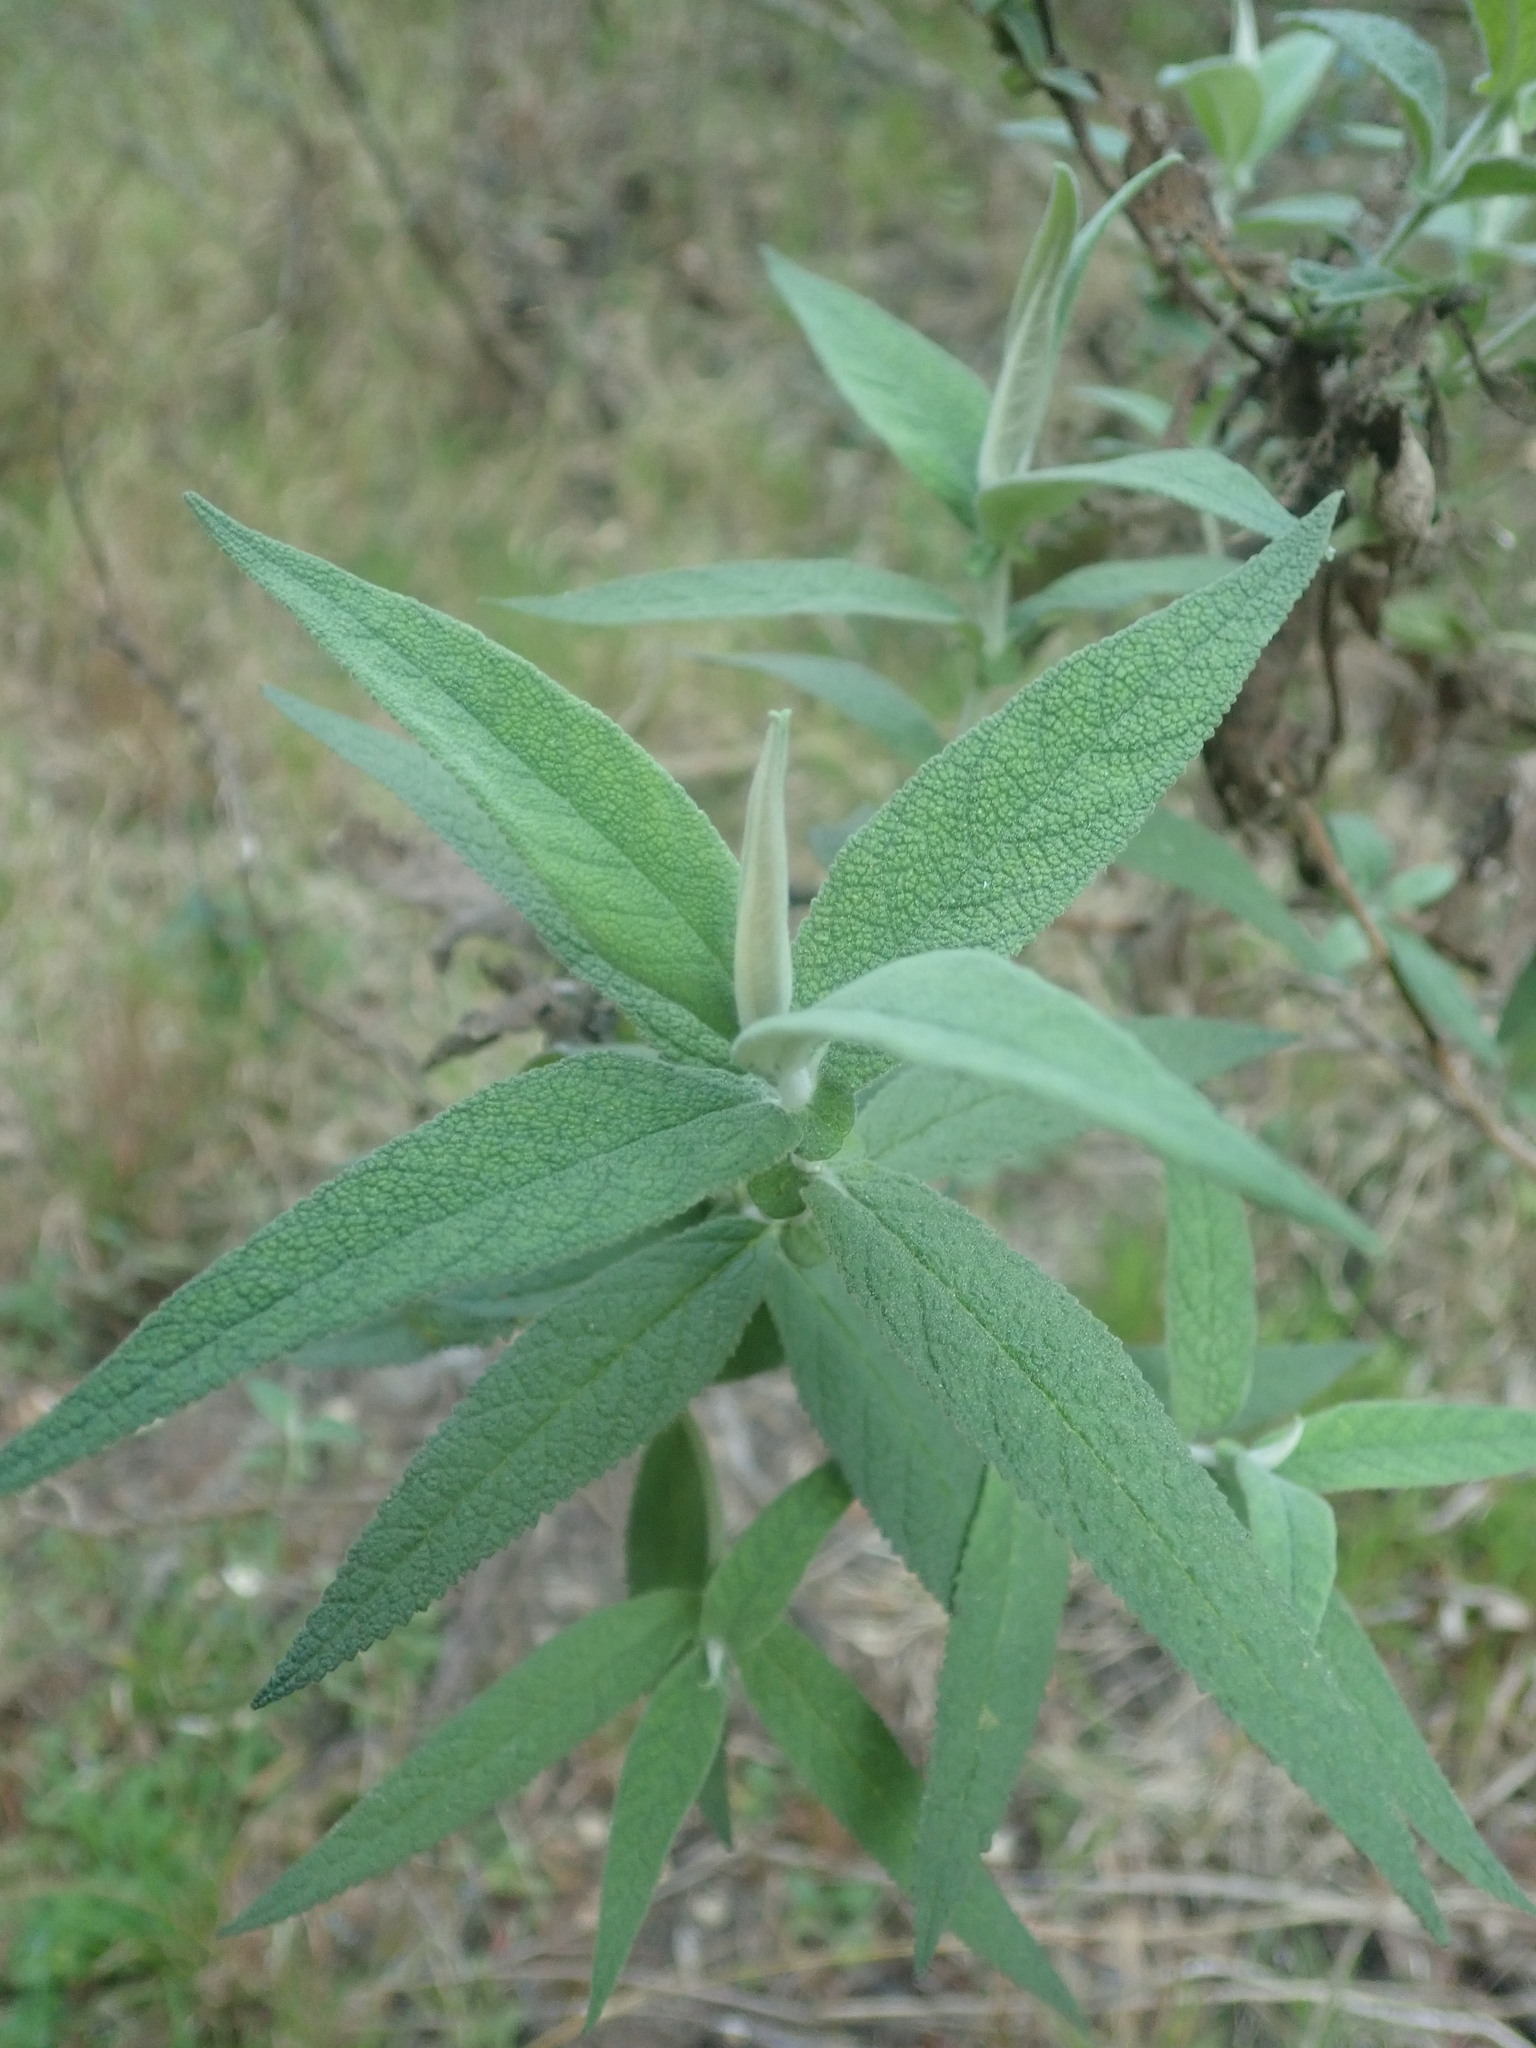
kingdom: Plantae
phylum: Tracheophyta
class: Magnoliopsida
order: Lamiales
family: Scrophulariaceae
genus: Buddleja
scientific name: Buddleja salviifolia
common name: Sagewood
